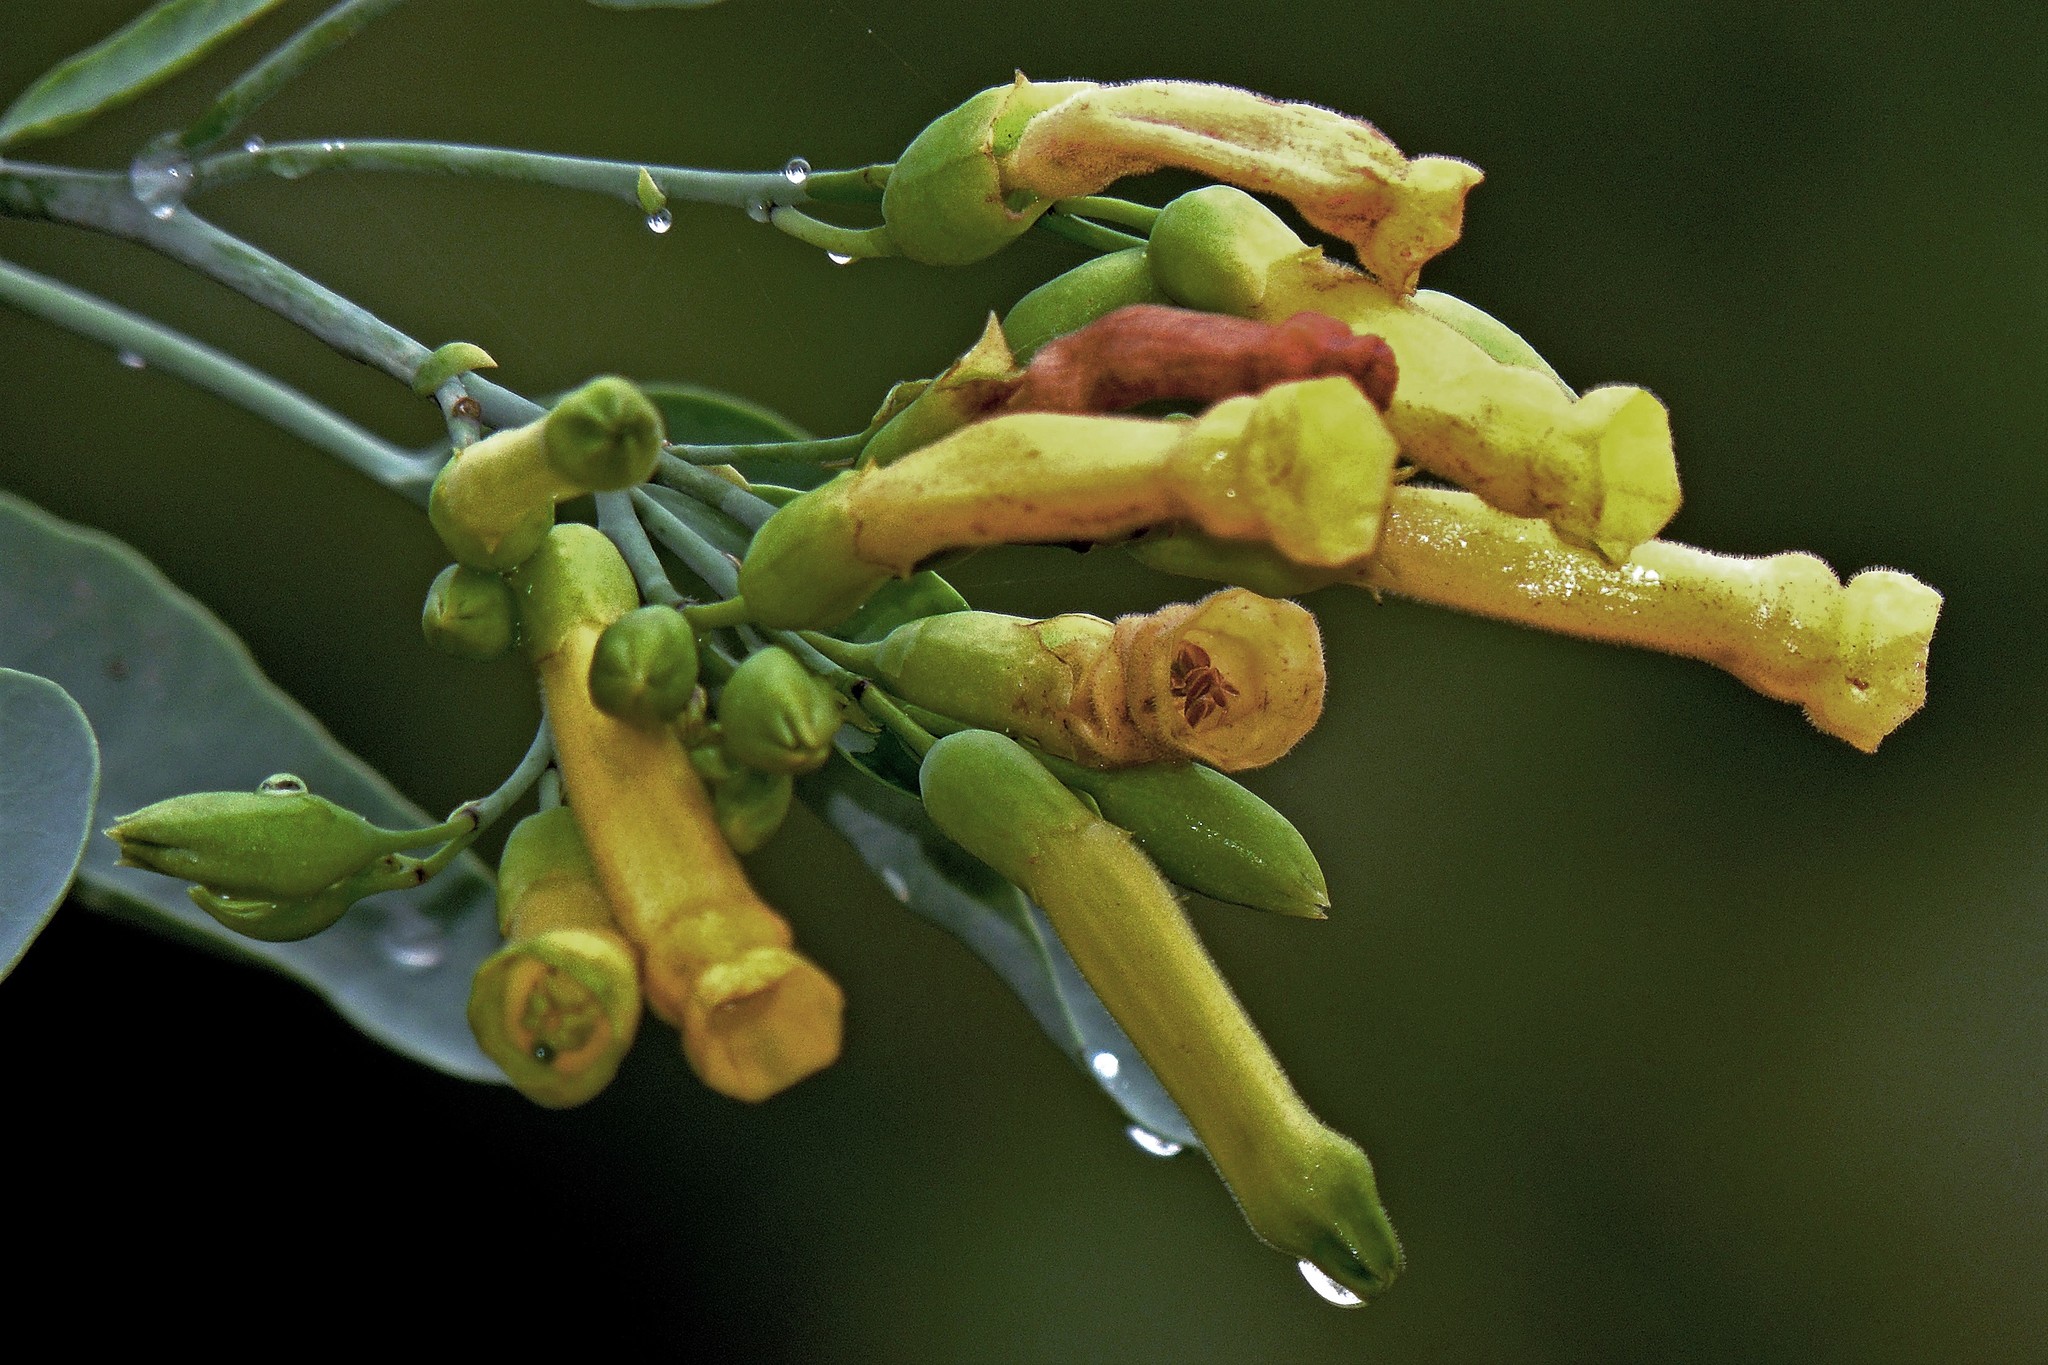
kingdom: Plantae
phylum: Tracheophyta
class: Magnoliopsida
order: Solanales
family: Solanaceae
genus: Nicotiana
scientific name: Nicotiana glauca
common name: Tree tobacco
